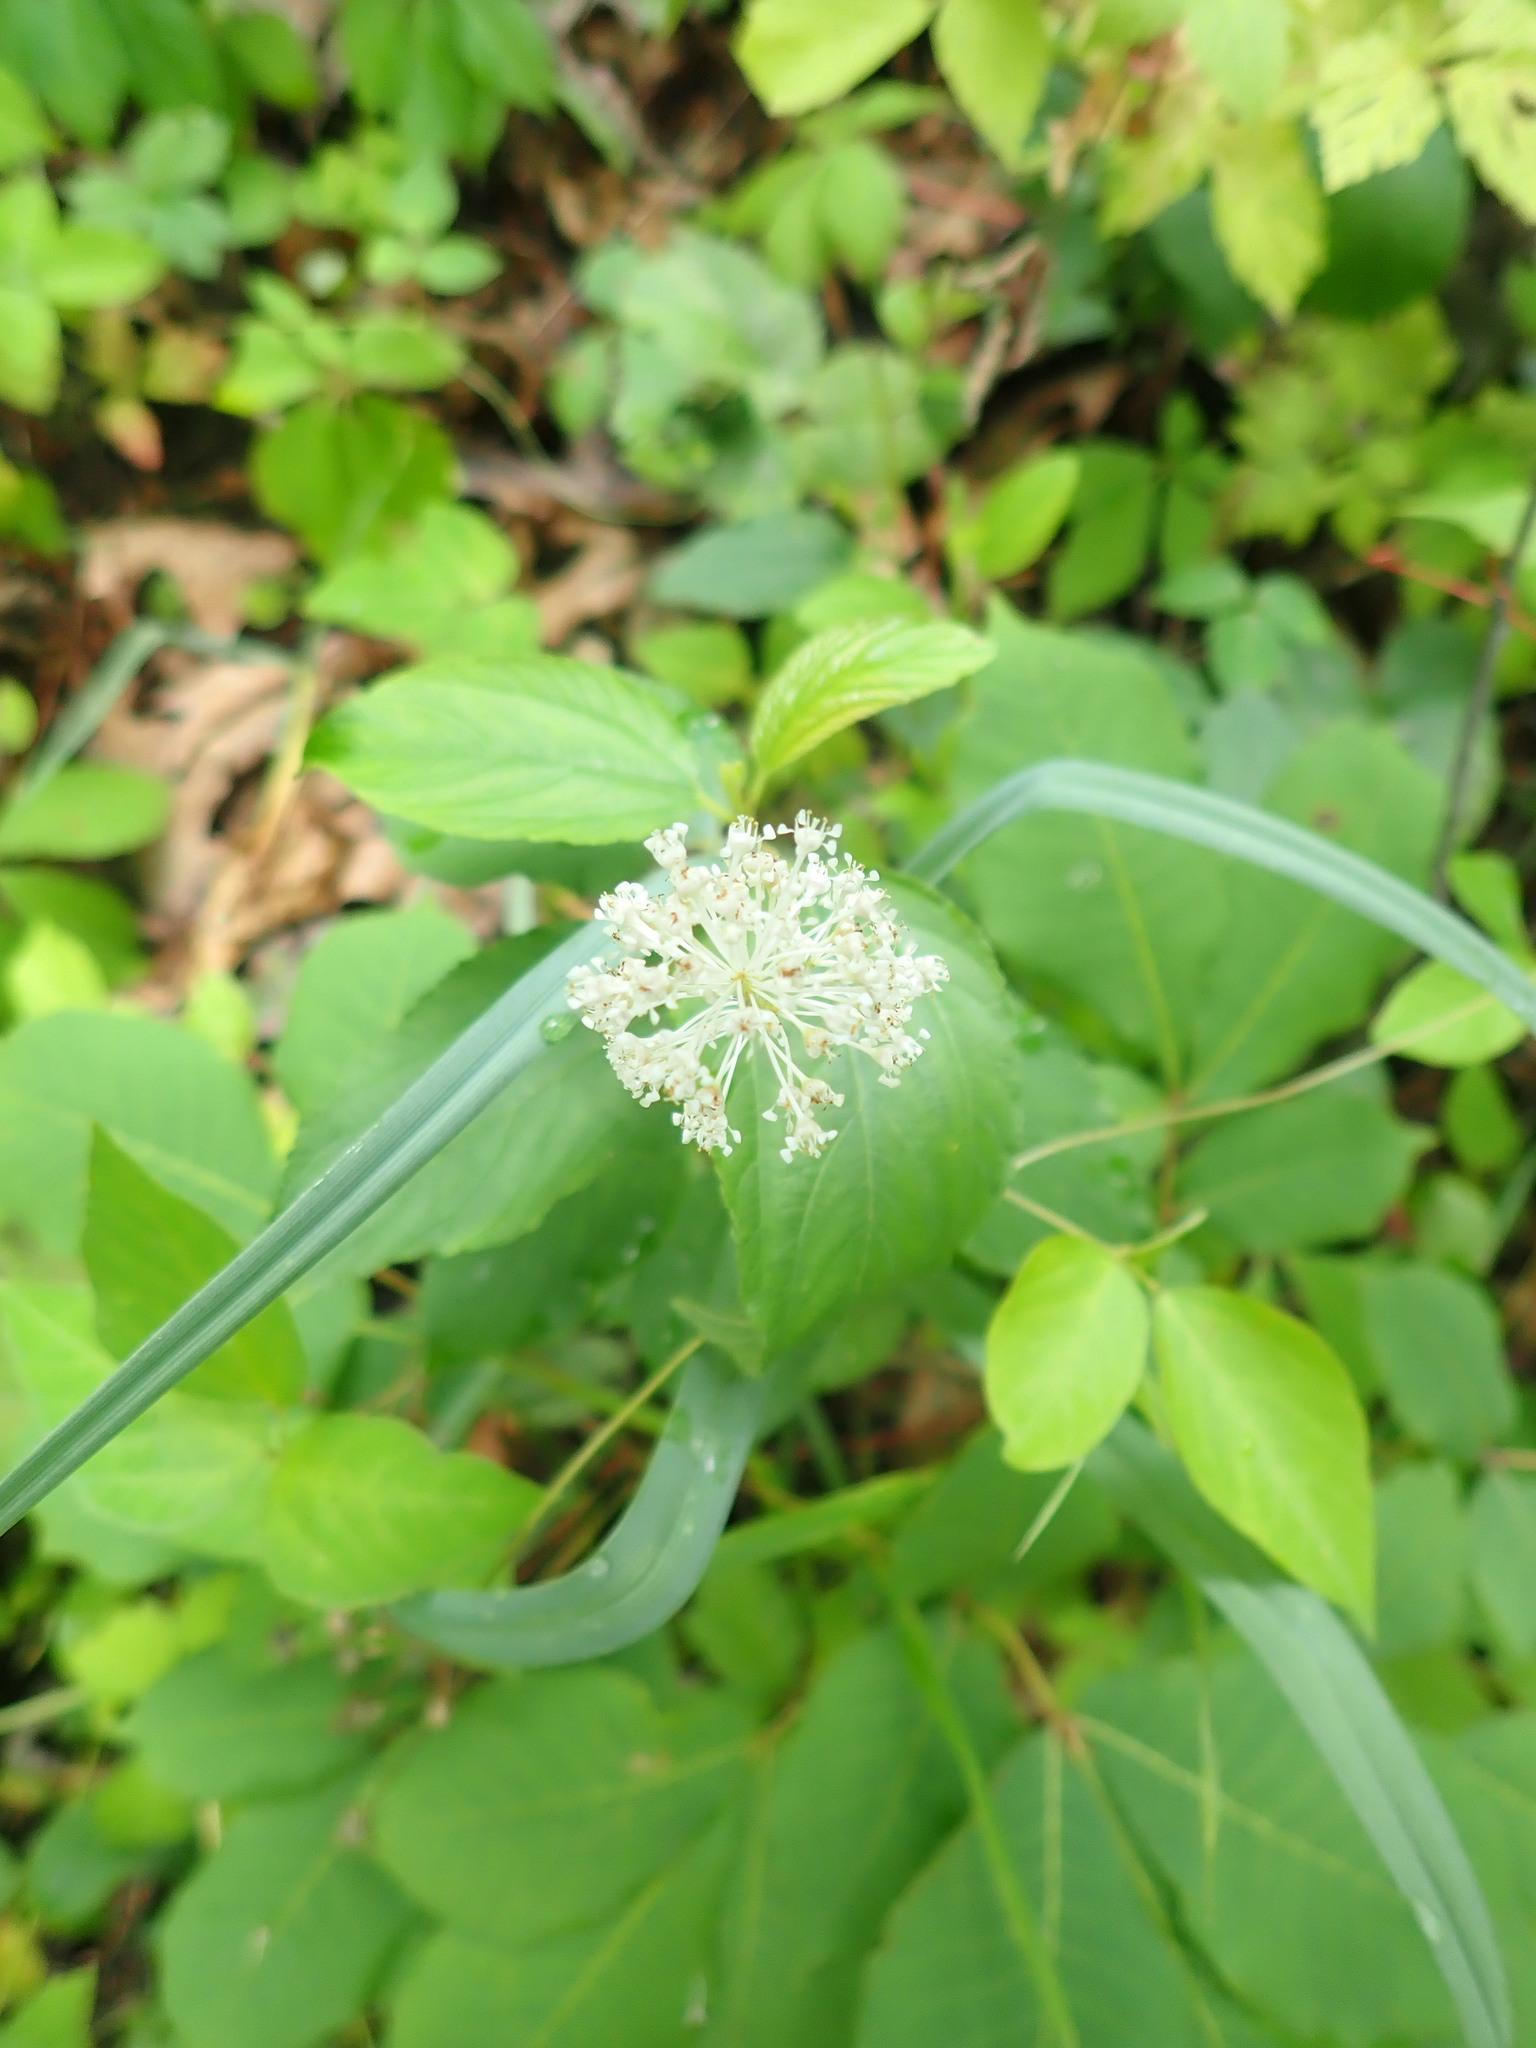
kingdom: Plantae
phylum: Tracheophyta
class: Magnoliopsida
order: Rosales
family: Rhamnaceae
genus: Ceanothus
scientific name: Ceanothus americanus
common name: Redroot
